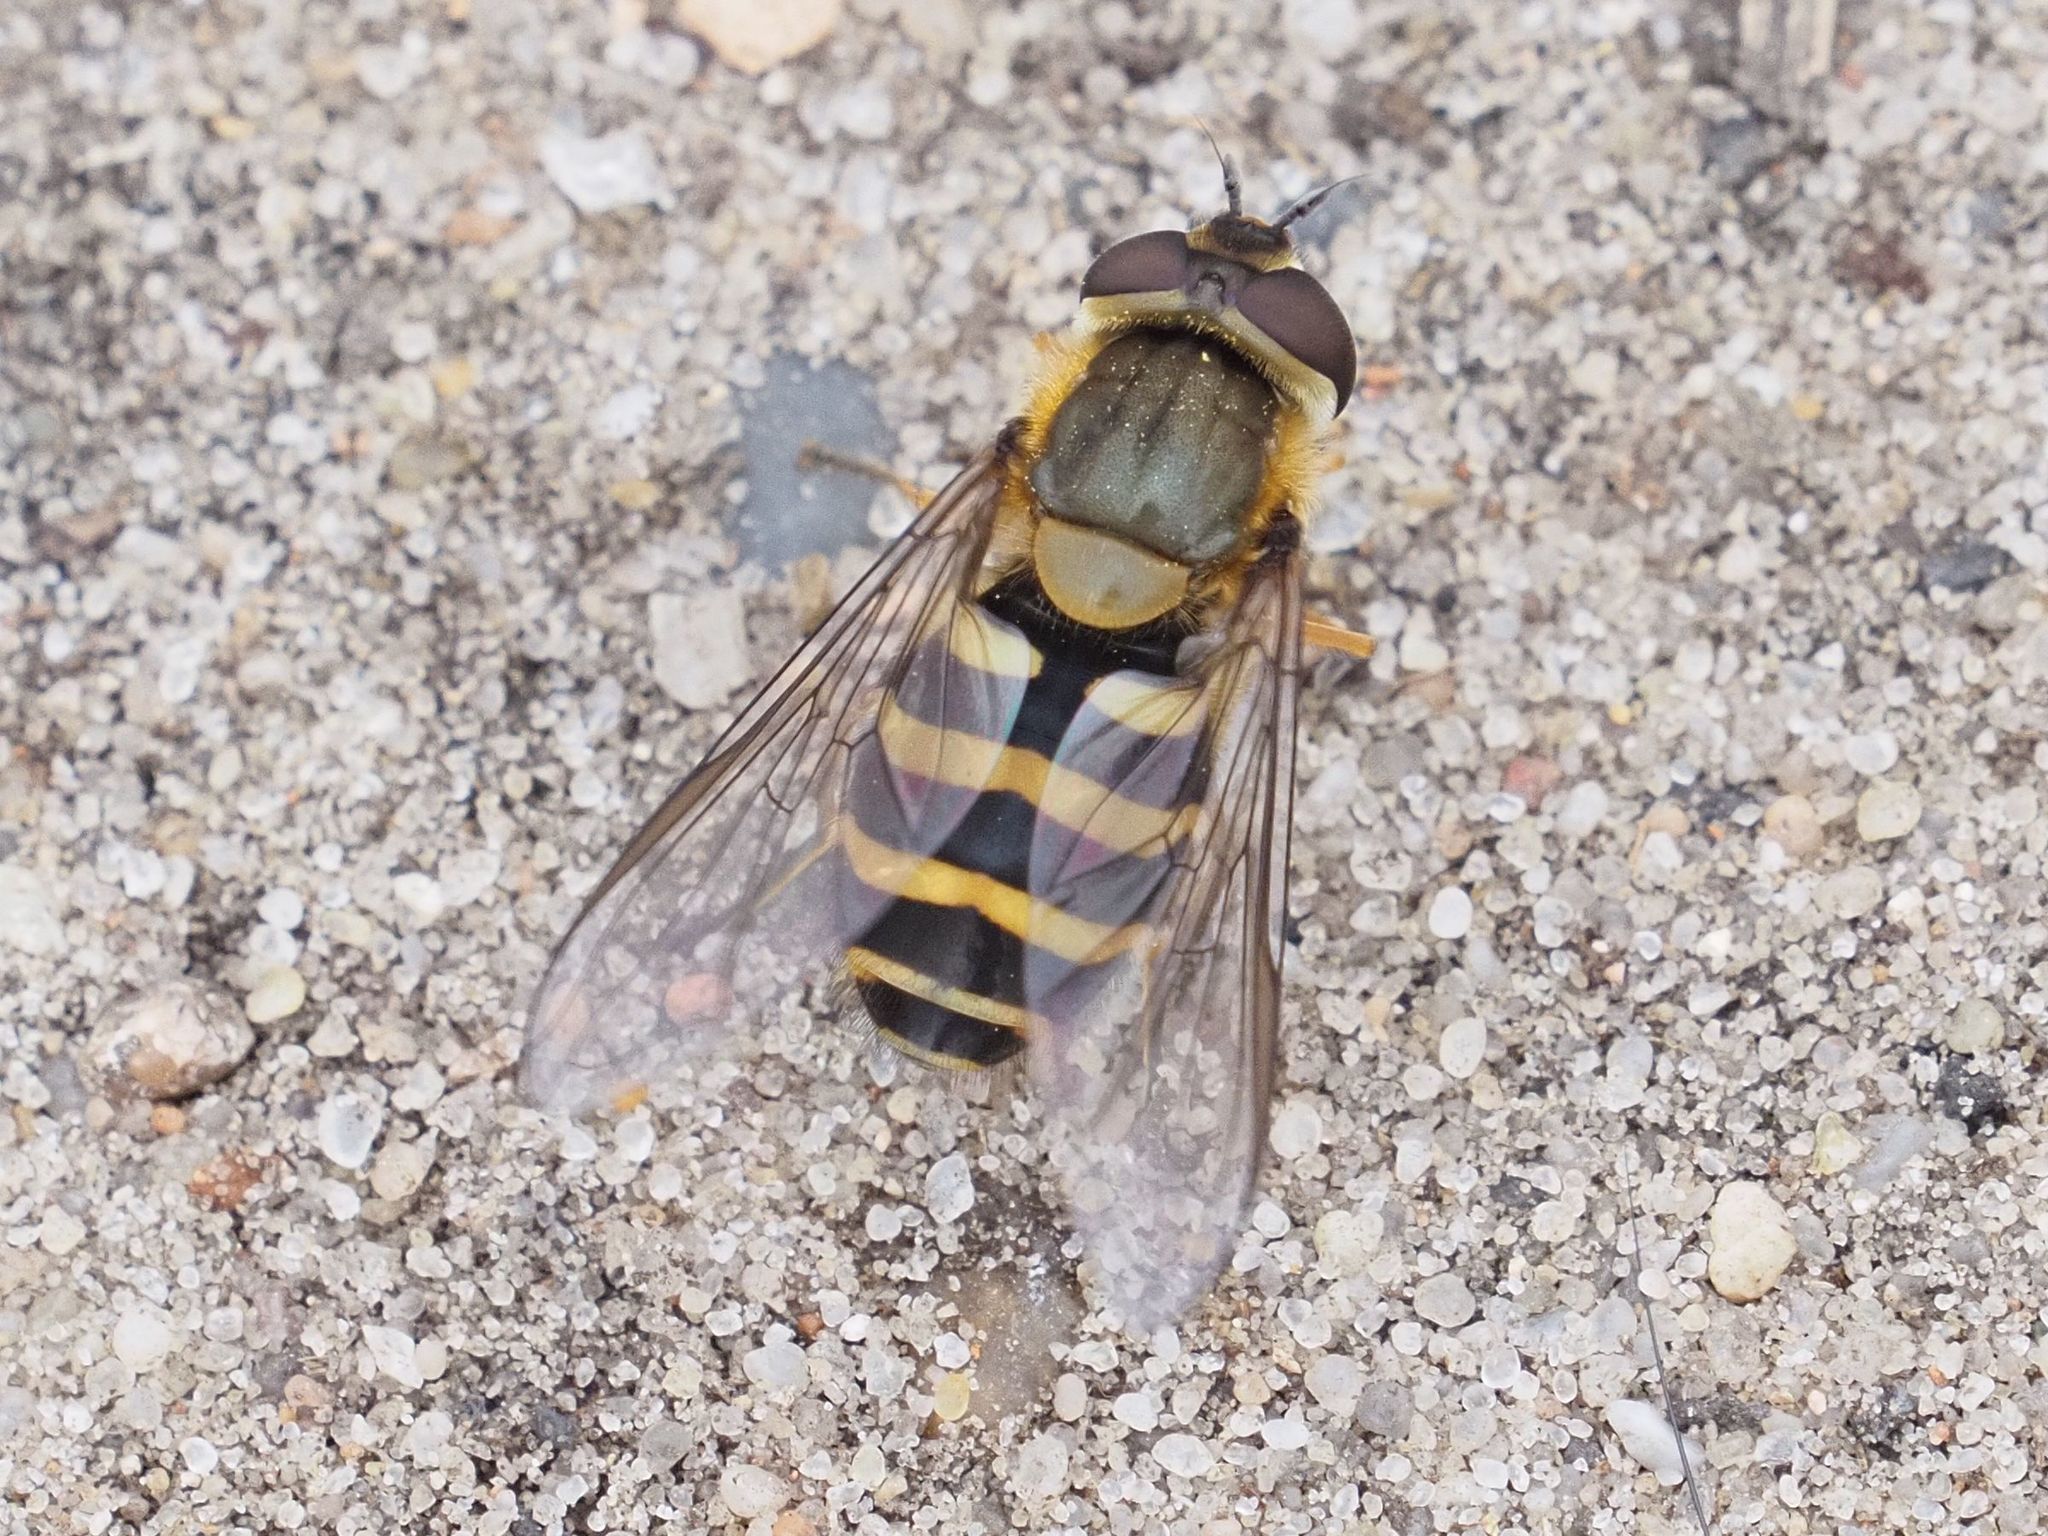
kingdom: Animalia
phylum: Arthropoda
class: Insecta
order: Diptera
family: Syrphidae
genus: Syrphus
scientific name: Syrphus torvus
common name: Hairy-eyed flower fly
